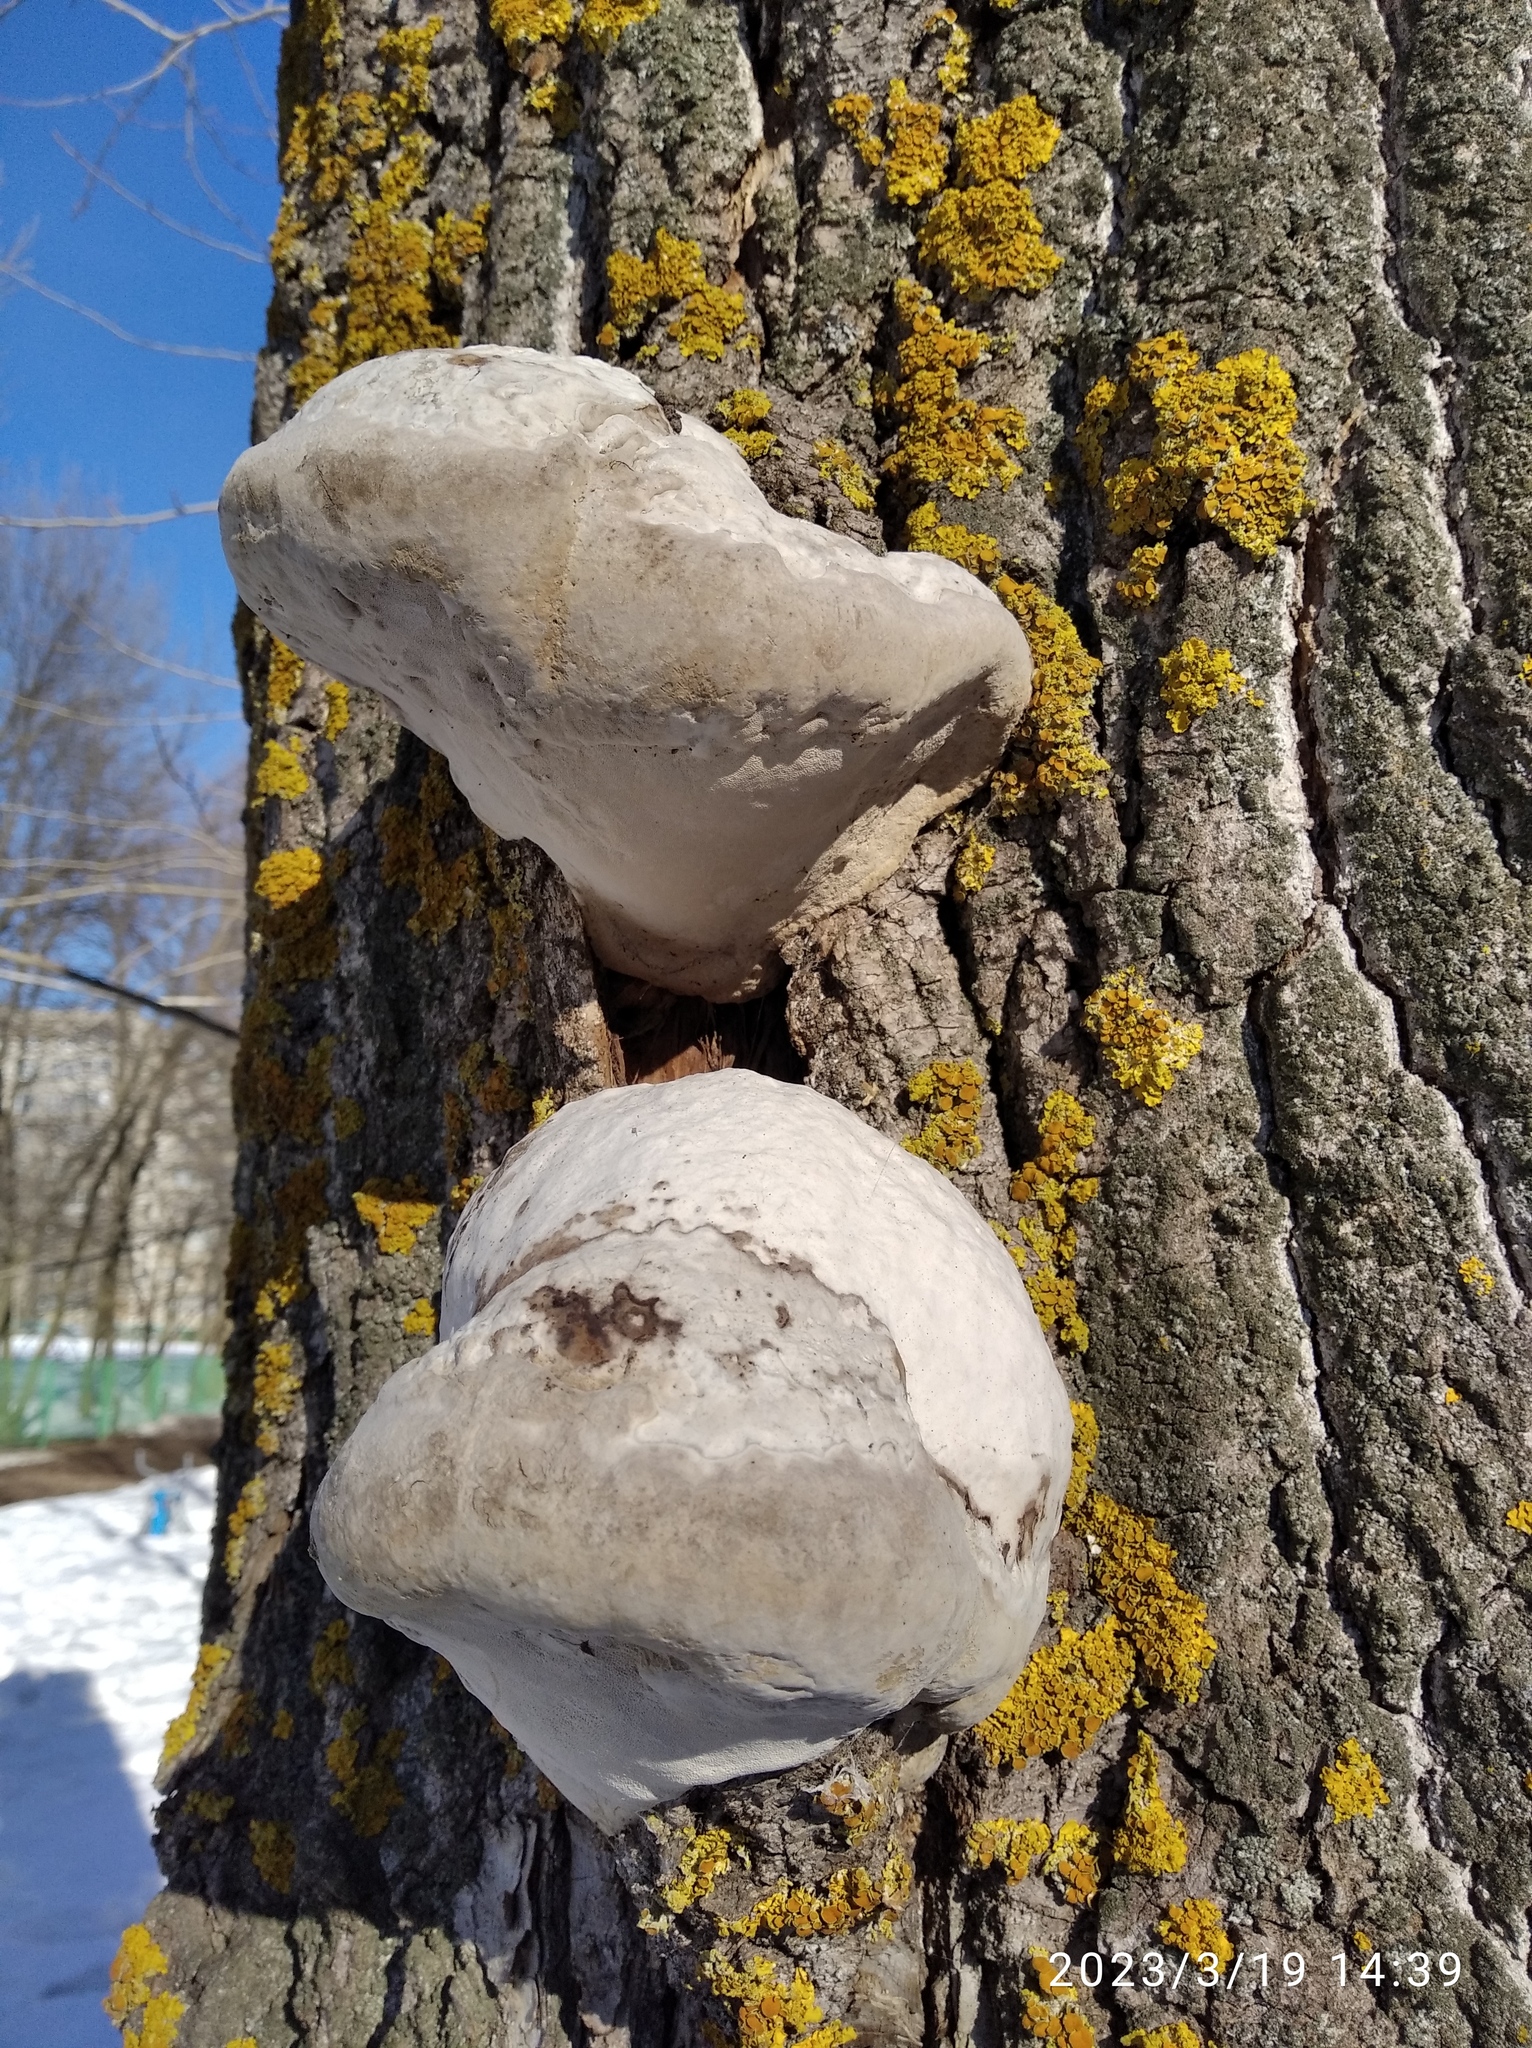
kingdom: Fungi
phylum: Basidiomycota
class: Agaricomycetes
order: Polyporales
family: Polyporaceae
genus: Fomes
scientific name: Fomes fomentarius
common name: Hoof fungus
